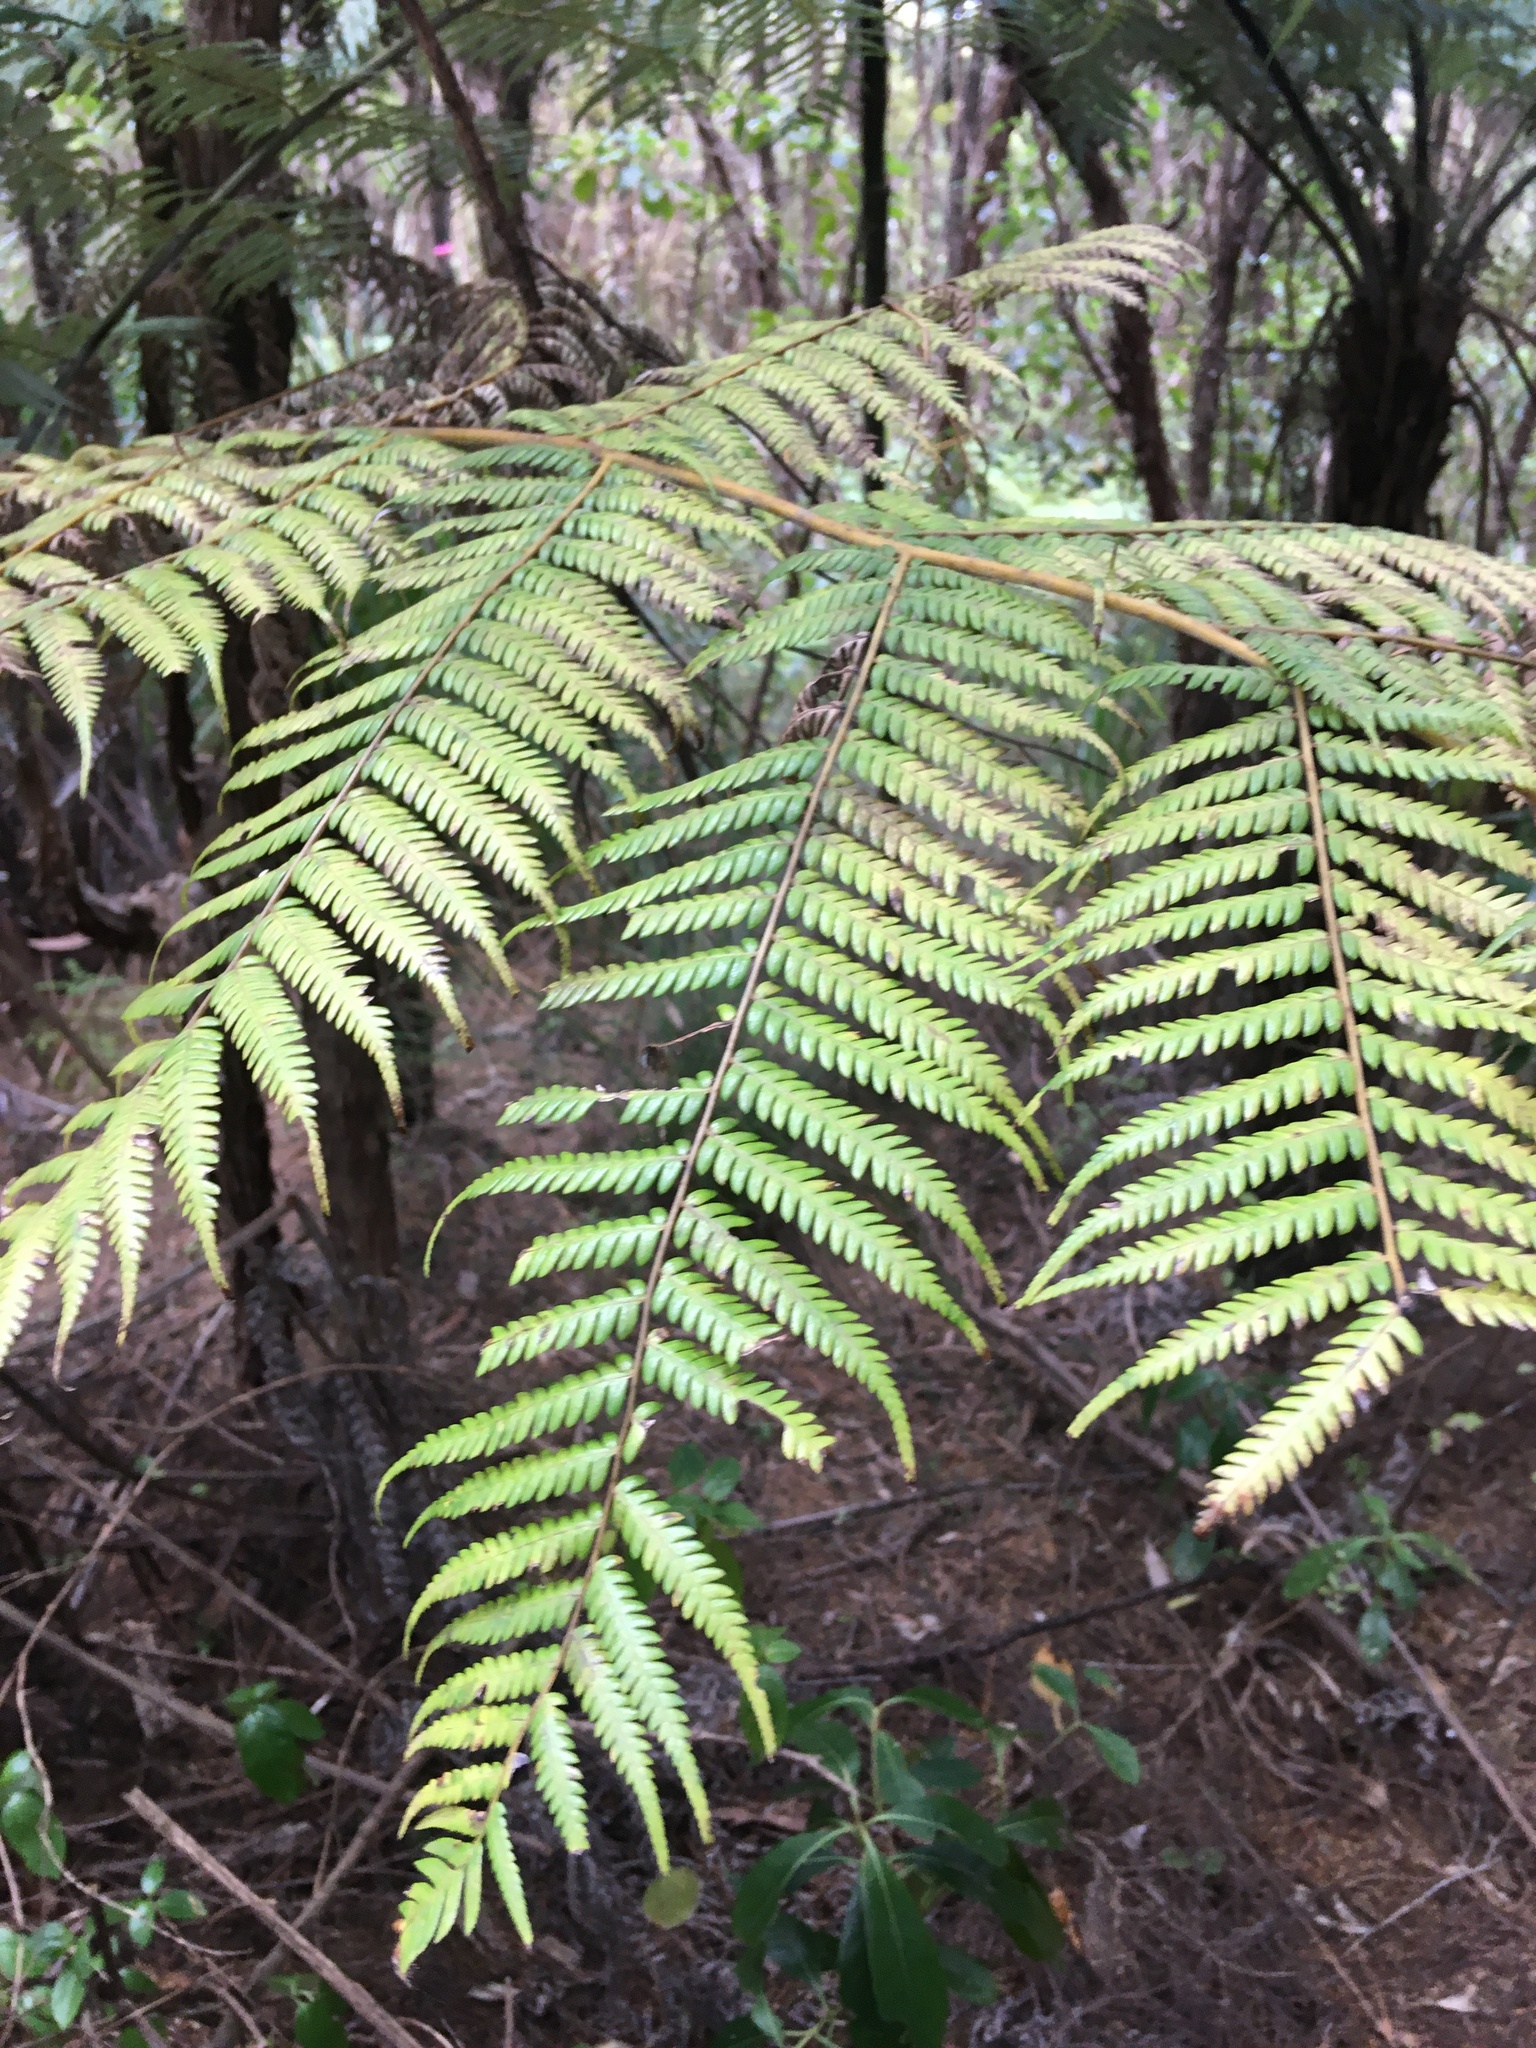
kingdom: Plantae
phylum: Tracheophyta
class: Polypodiopsida
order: Cyatheales
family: Cyatheaceae
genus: Alsophila
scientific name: Alsophila dealbata
